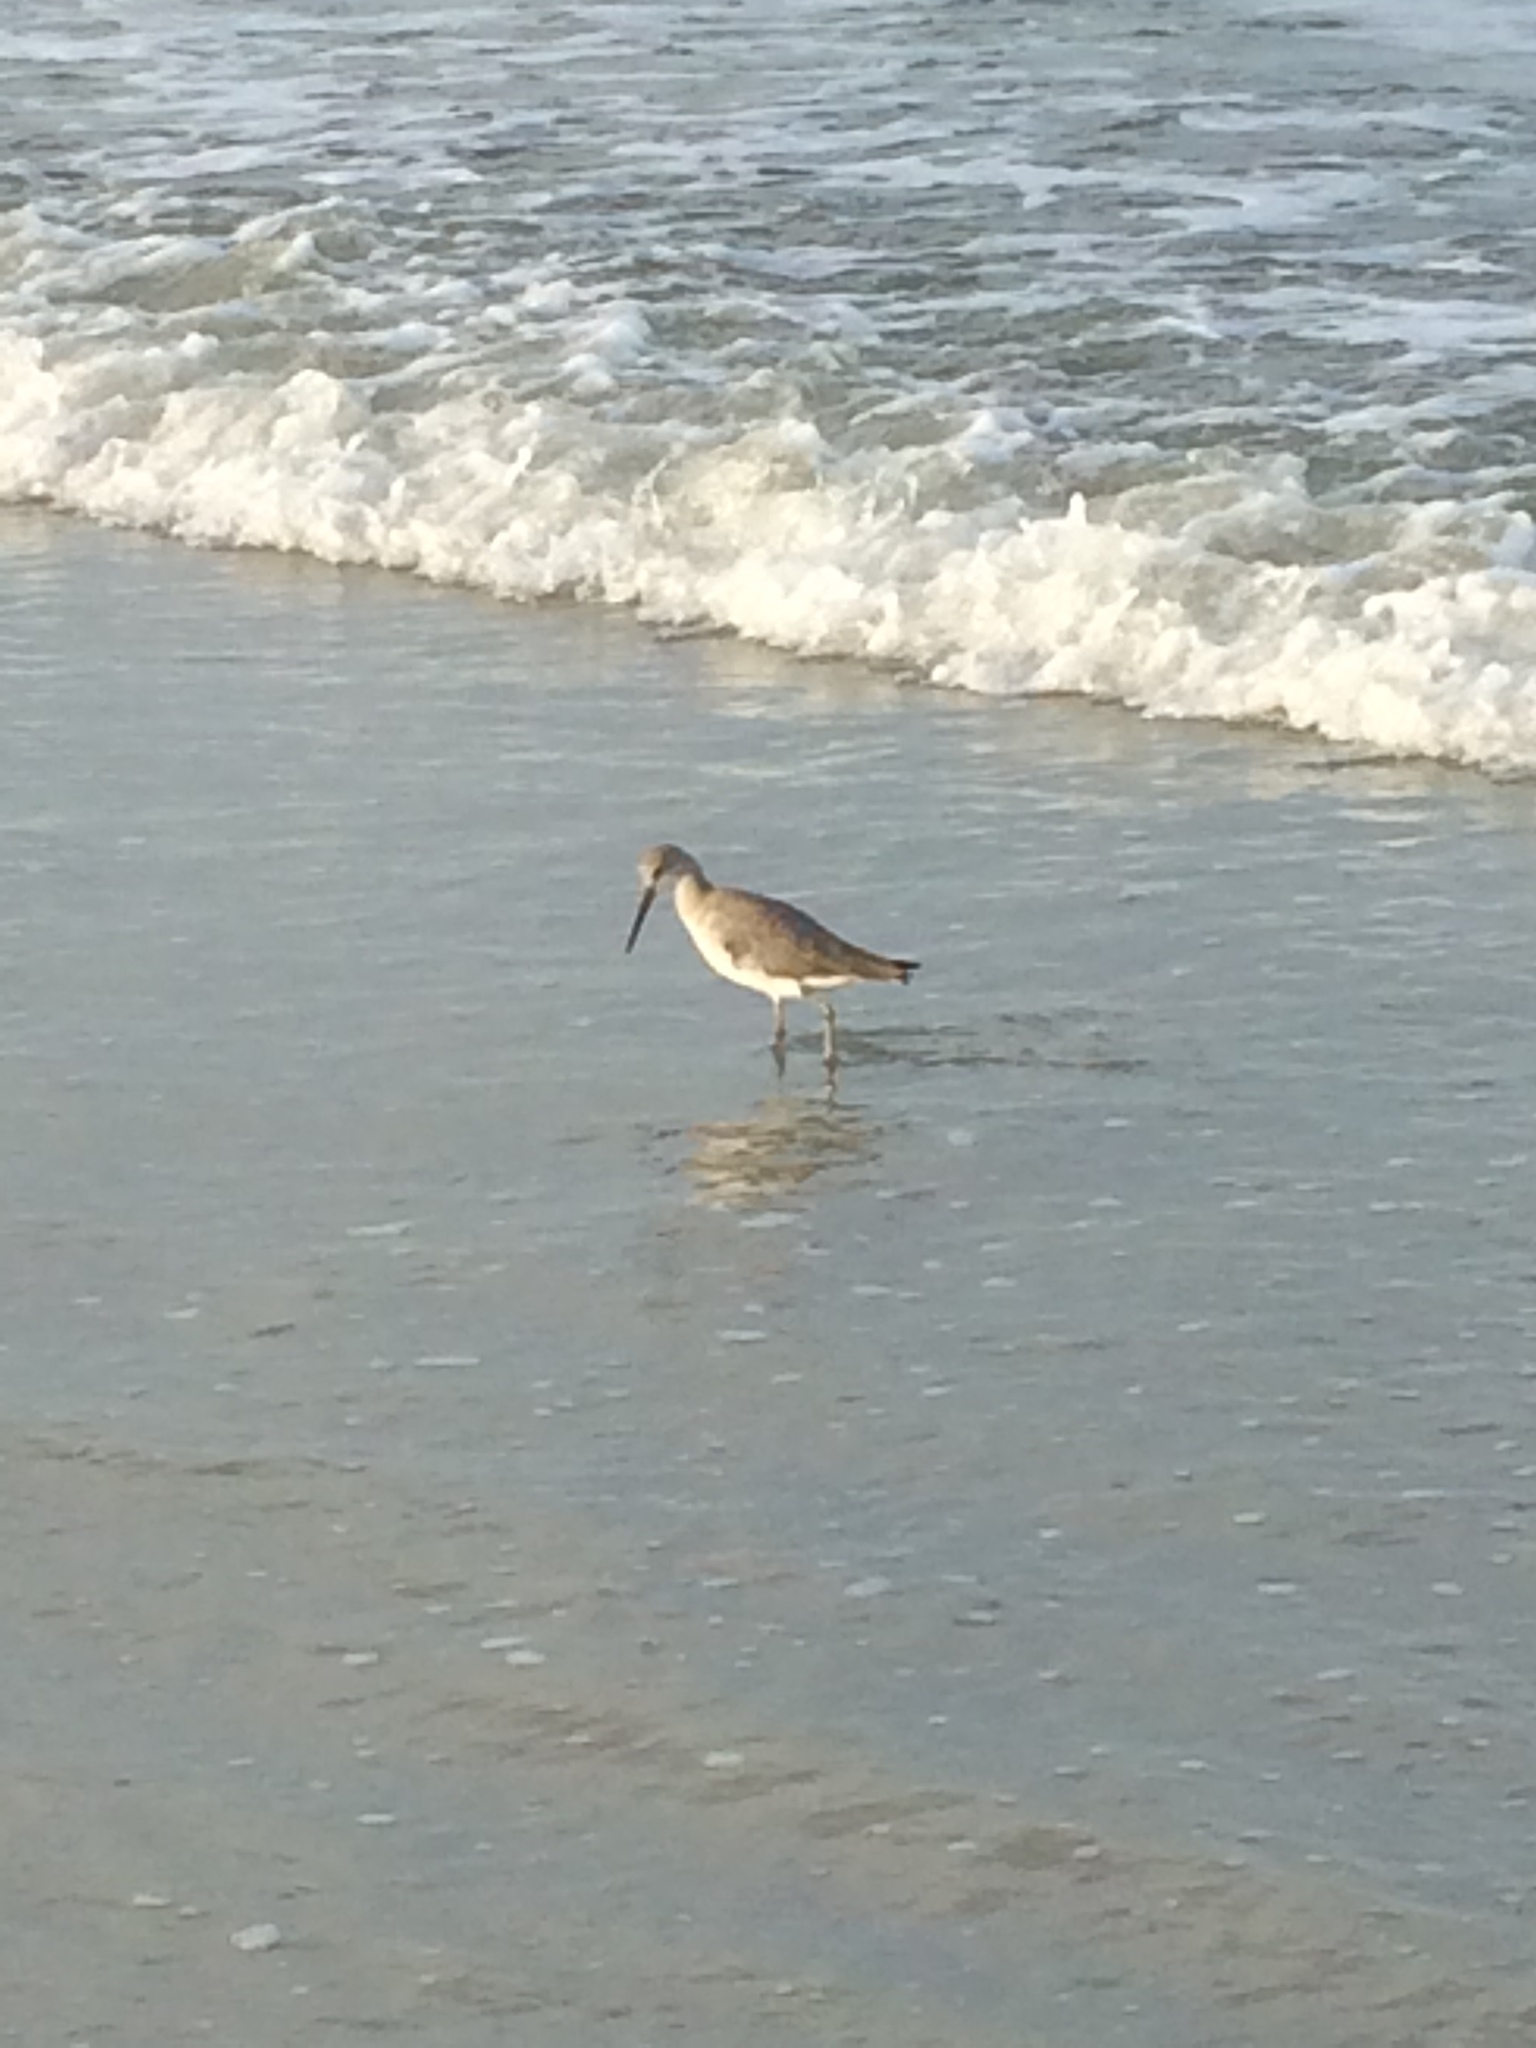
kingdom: Animalia
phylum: Chordata
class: Aves
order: Charadriiformes
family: Scolopacidae
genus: Tringa
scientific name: Tringa semipalmata
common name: Willet
